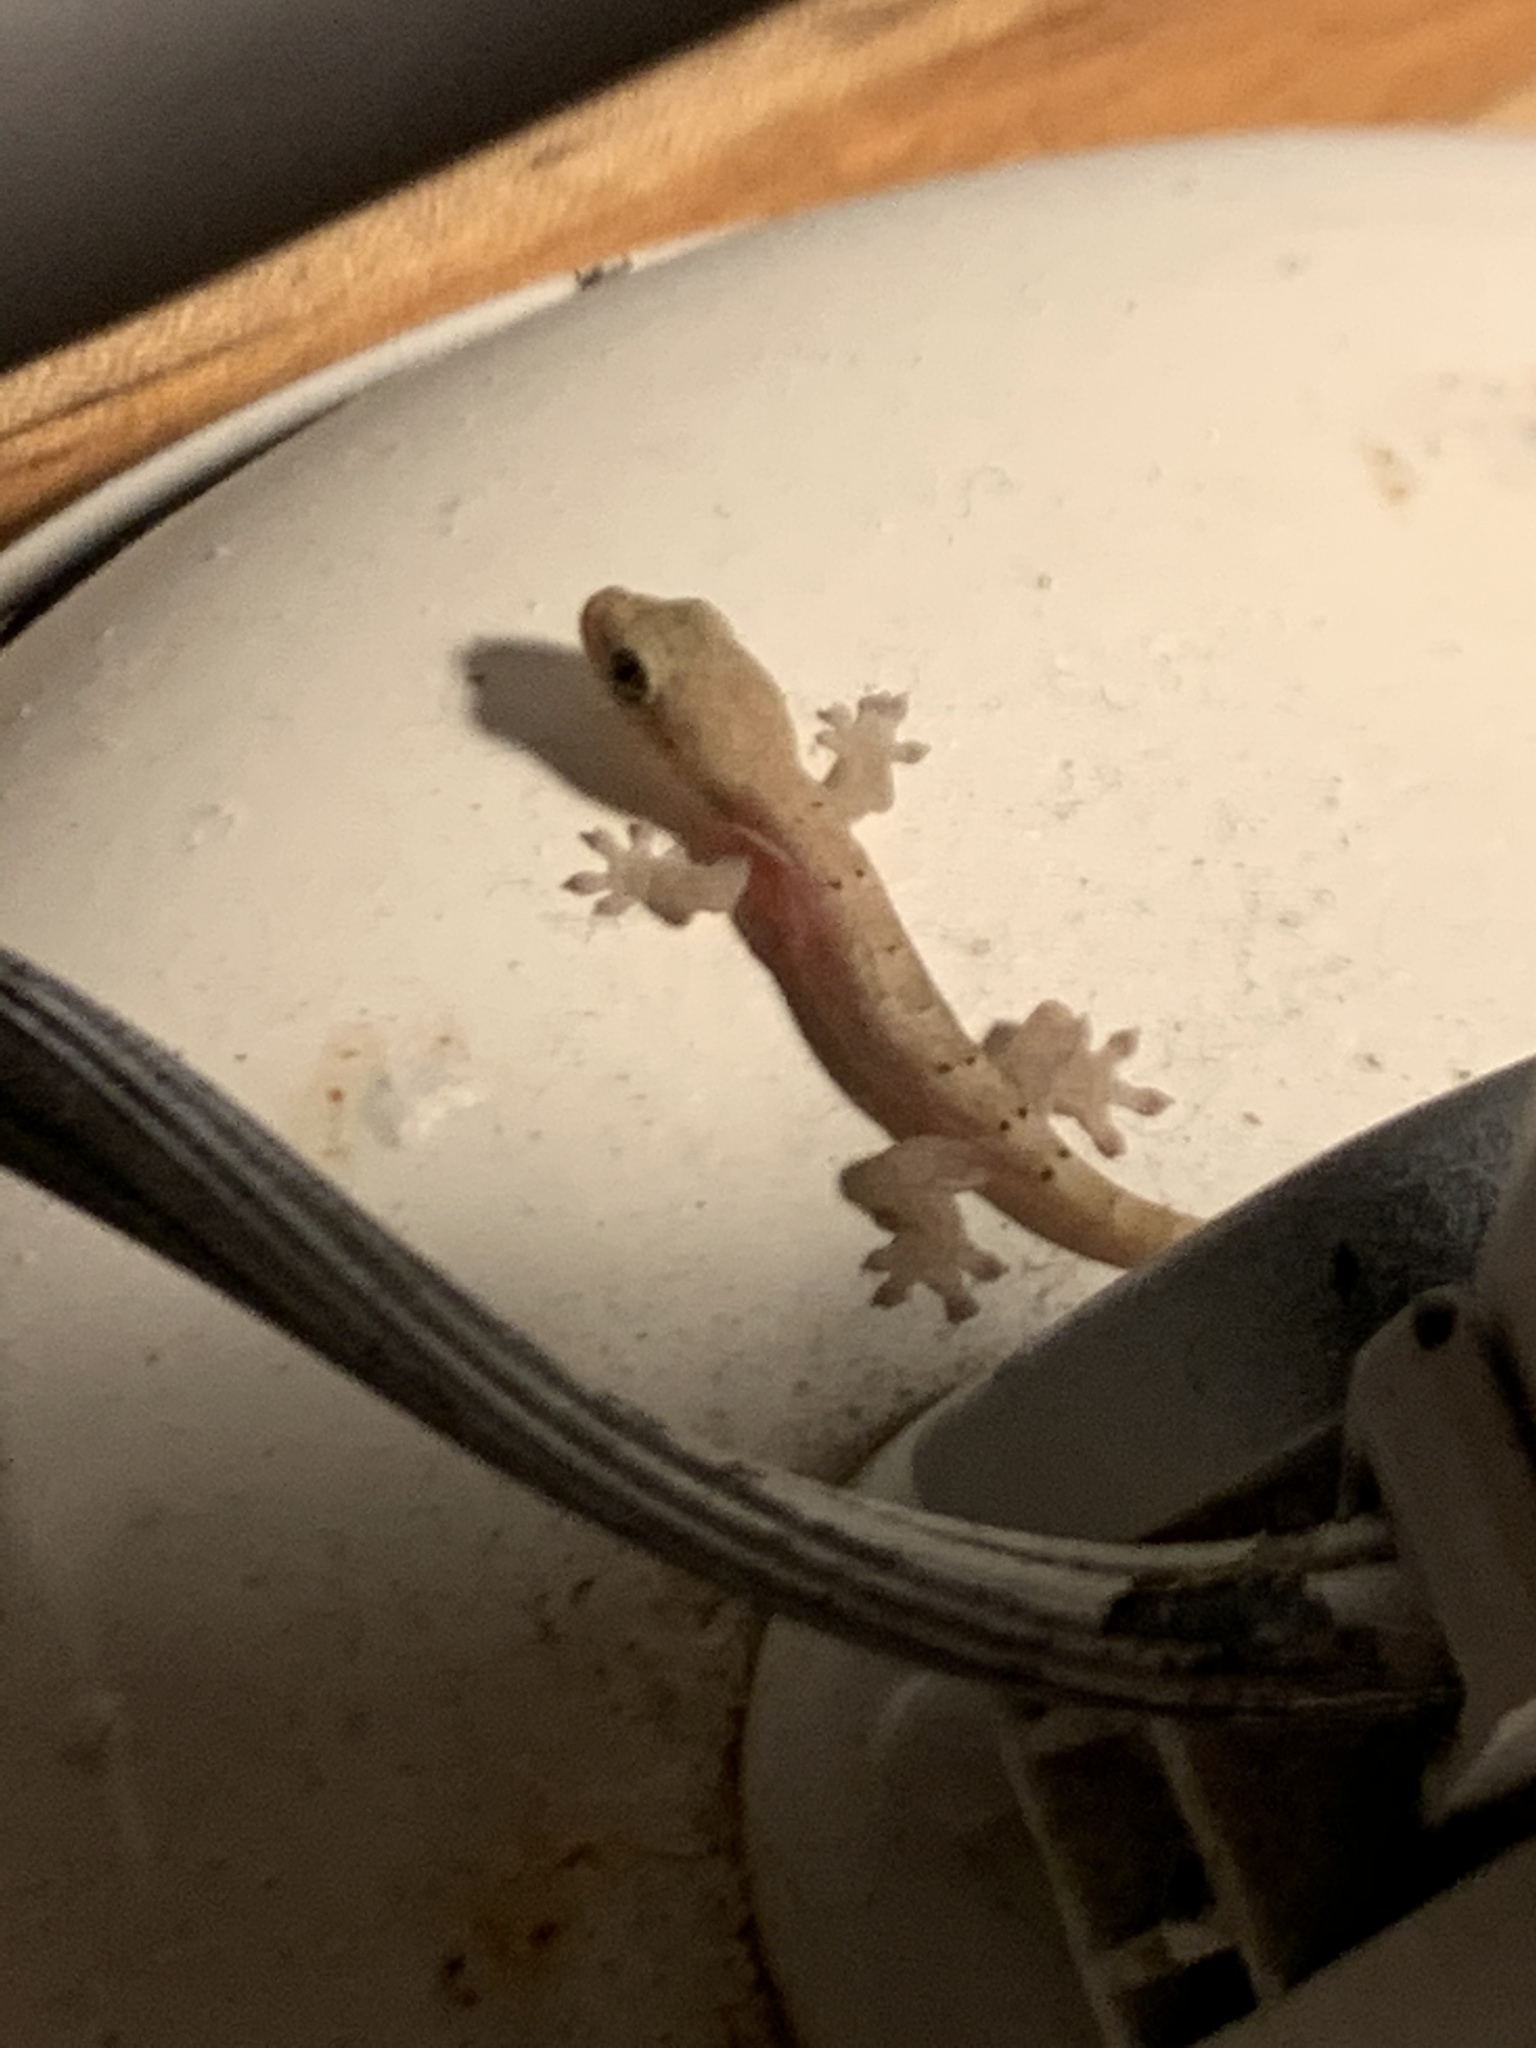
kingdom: Animalia
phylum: Chordata
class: Squamata
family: Gekkonidae
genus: Lepidodactylus
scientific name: Lepidodactylus lugubris
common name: Mourning gecko
